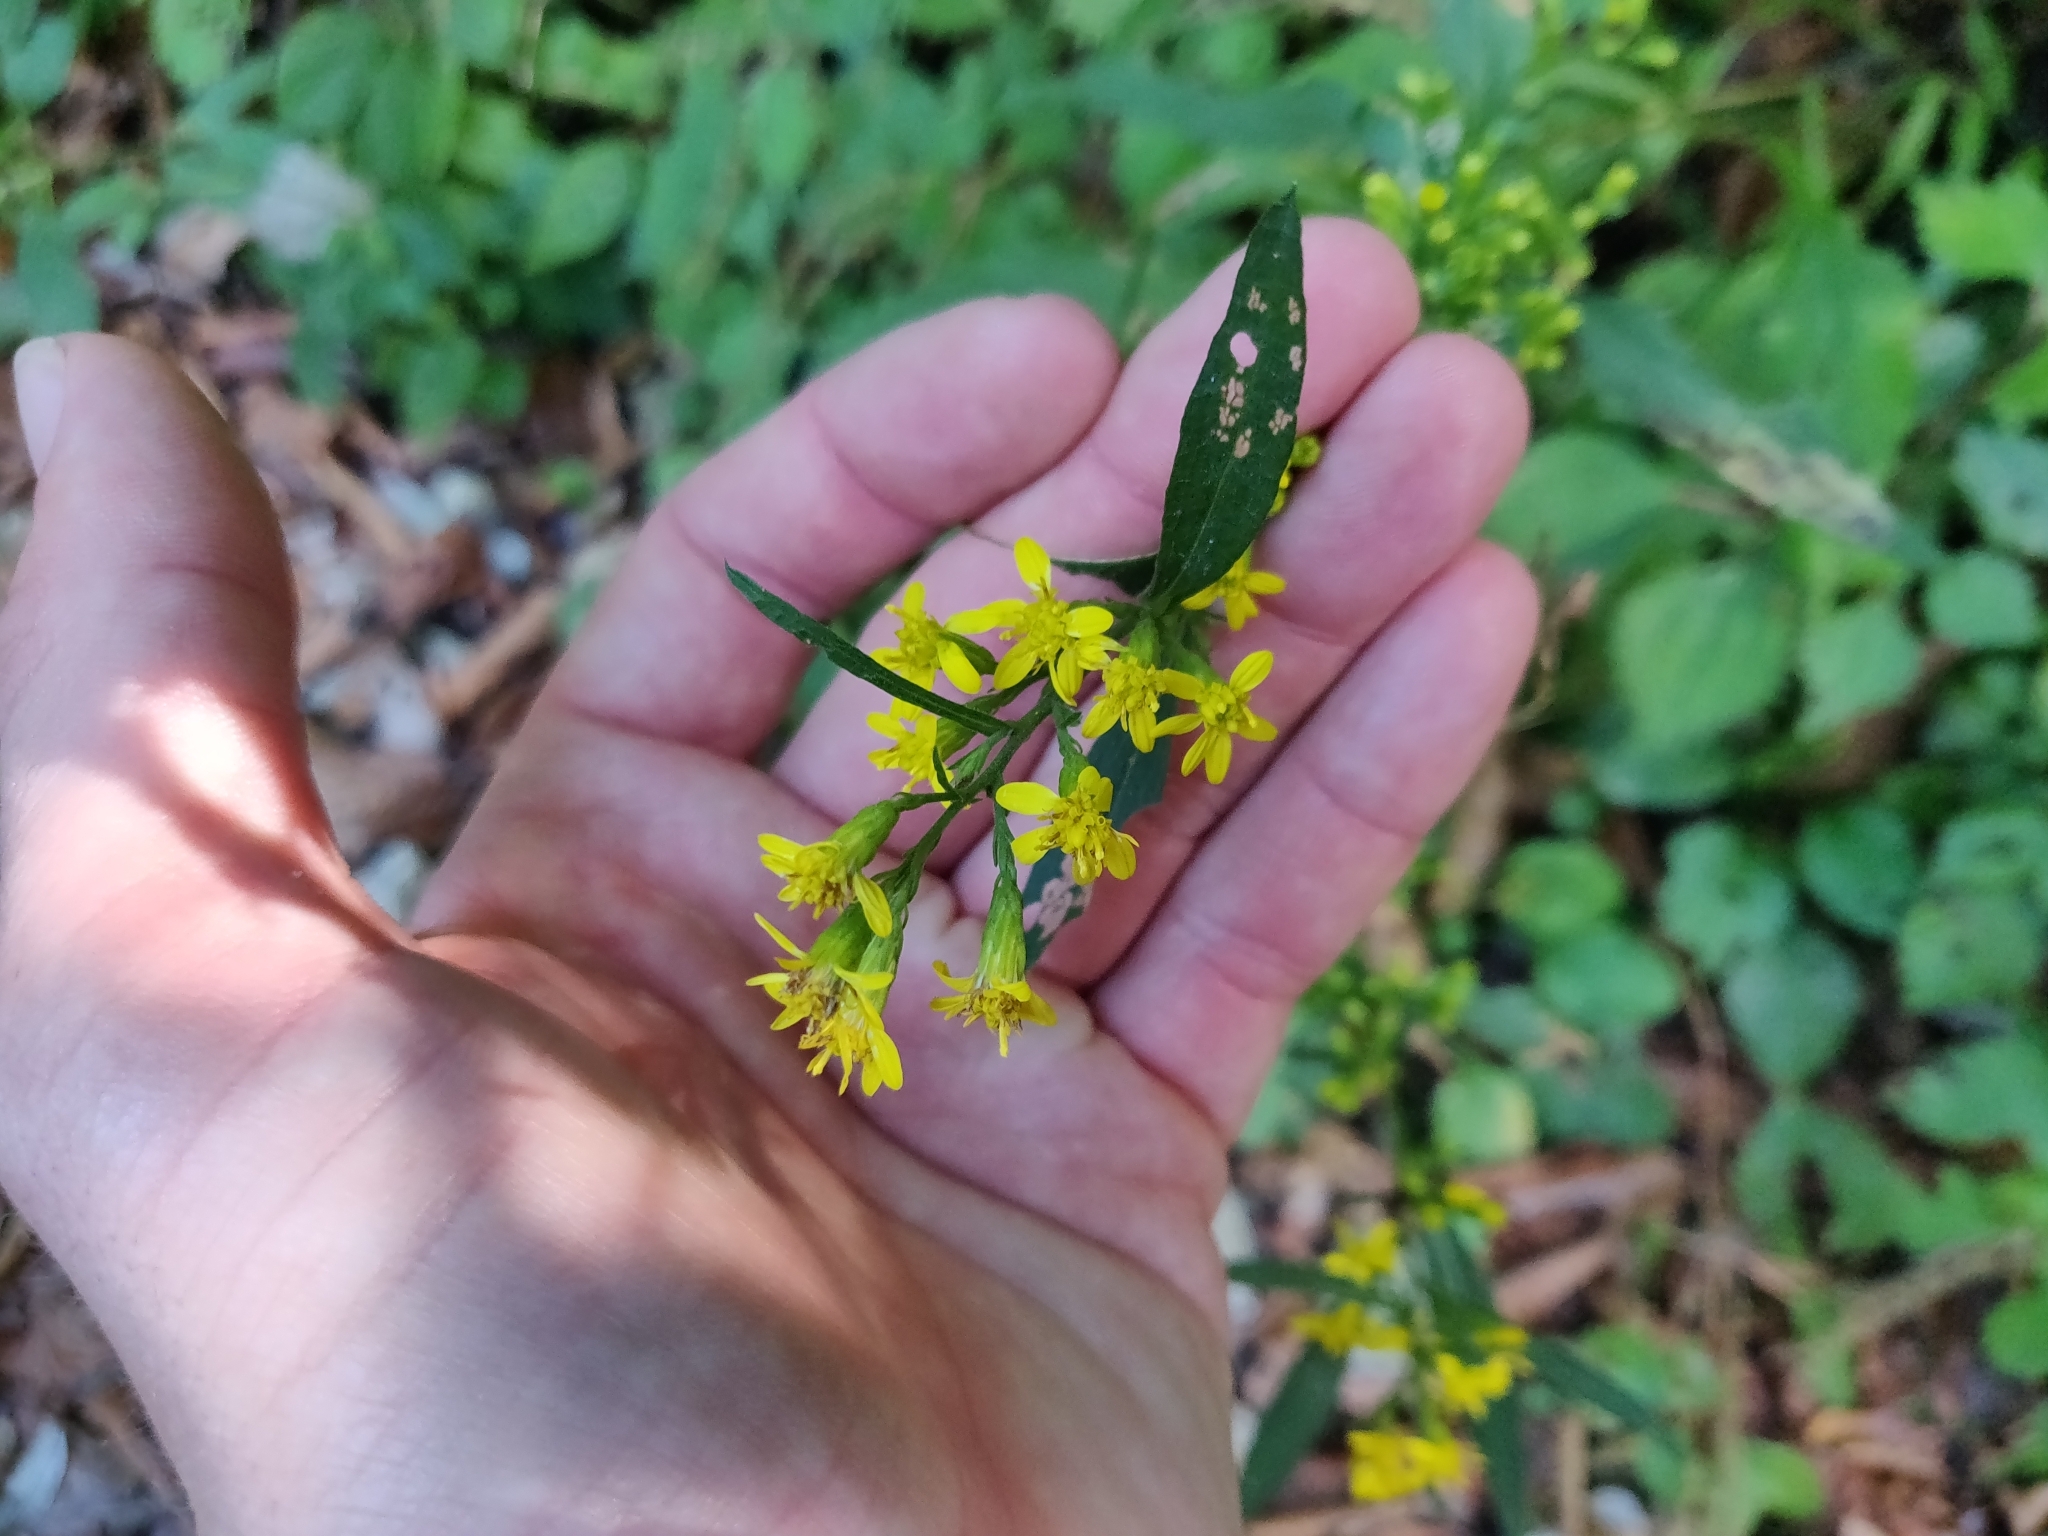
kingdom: Plantae
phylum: Tracheophyta
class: Magnoliopsida
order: Asterales
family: Asteraceae
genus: Solidago
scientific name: Solidago virgaurea
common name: Goldenrod
